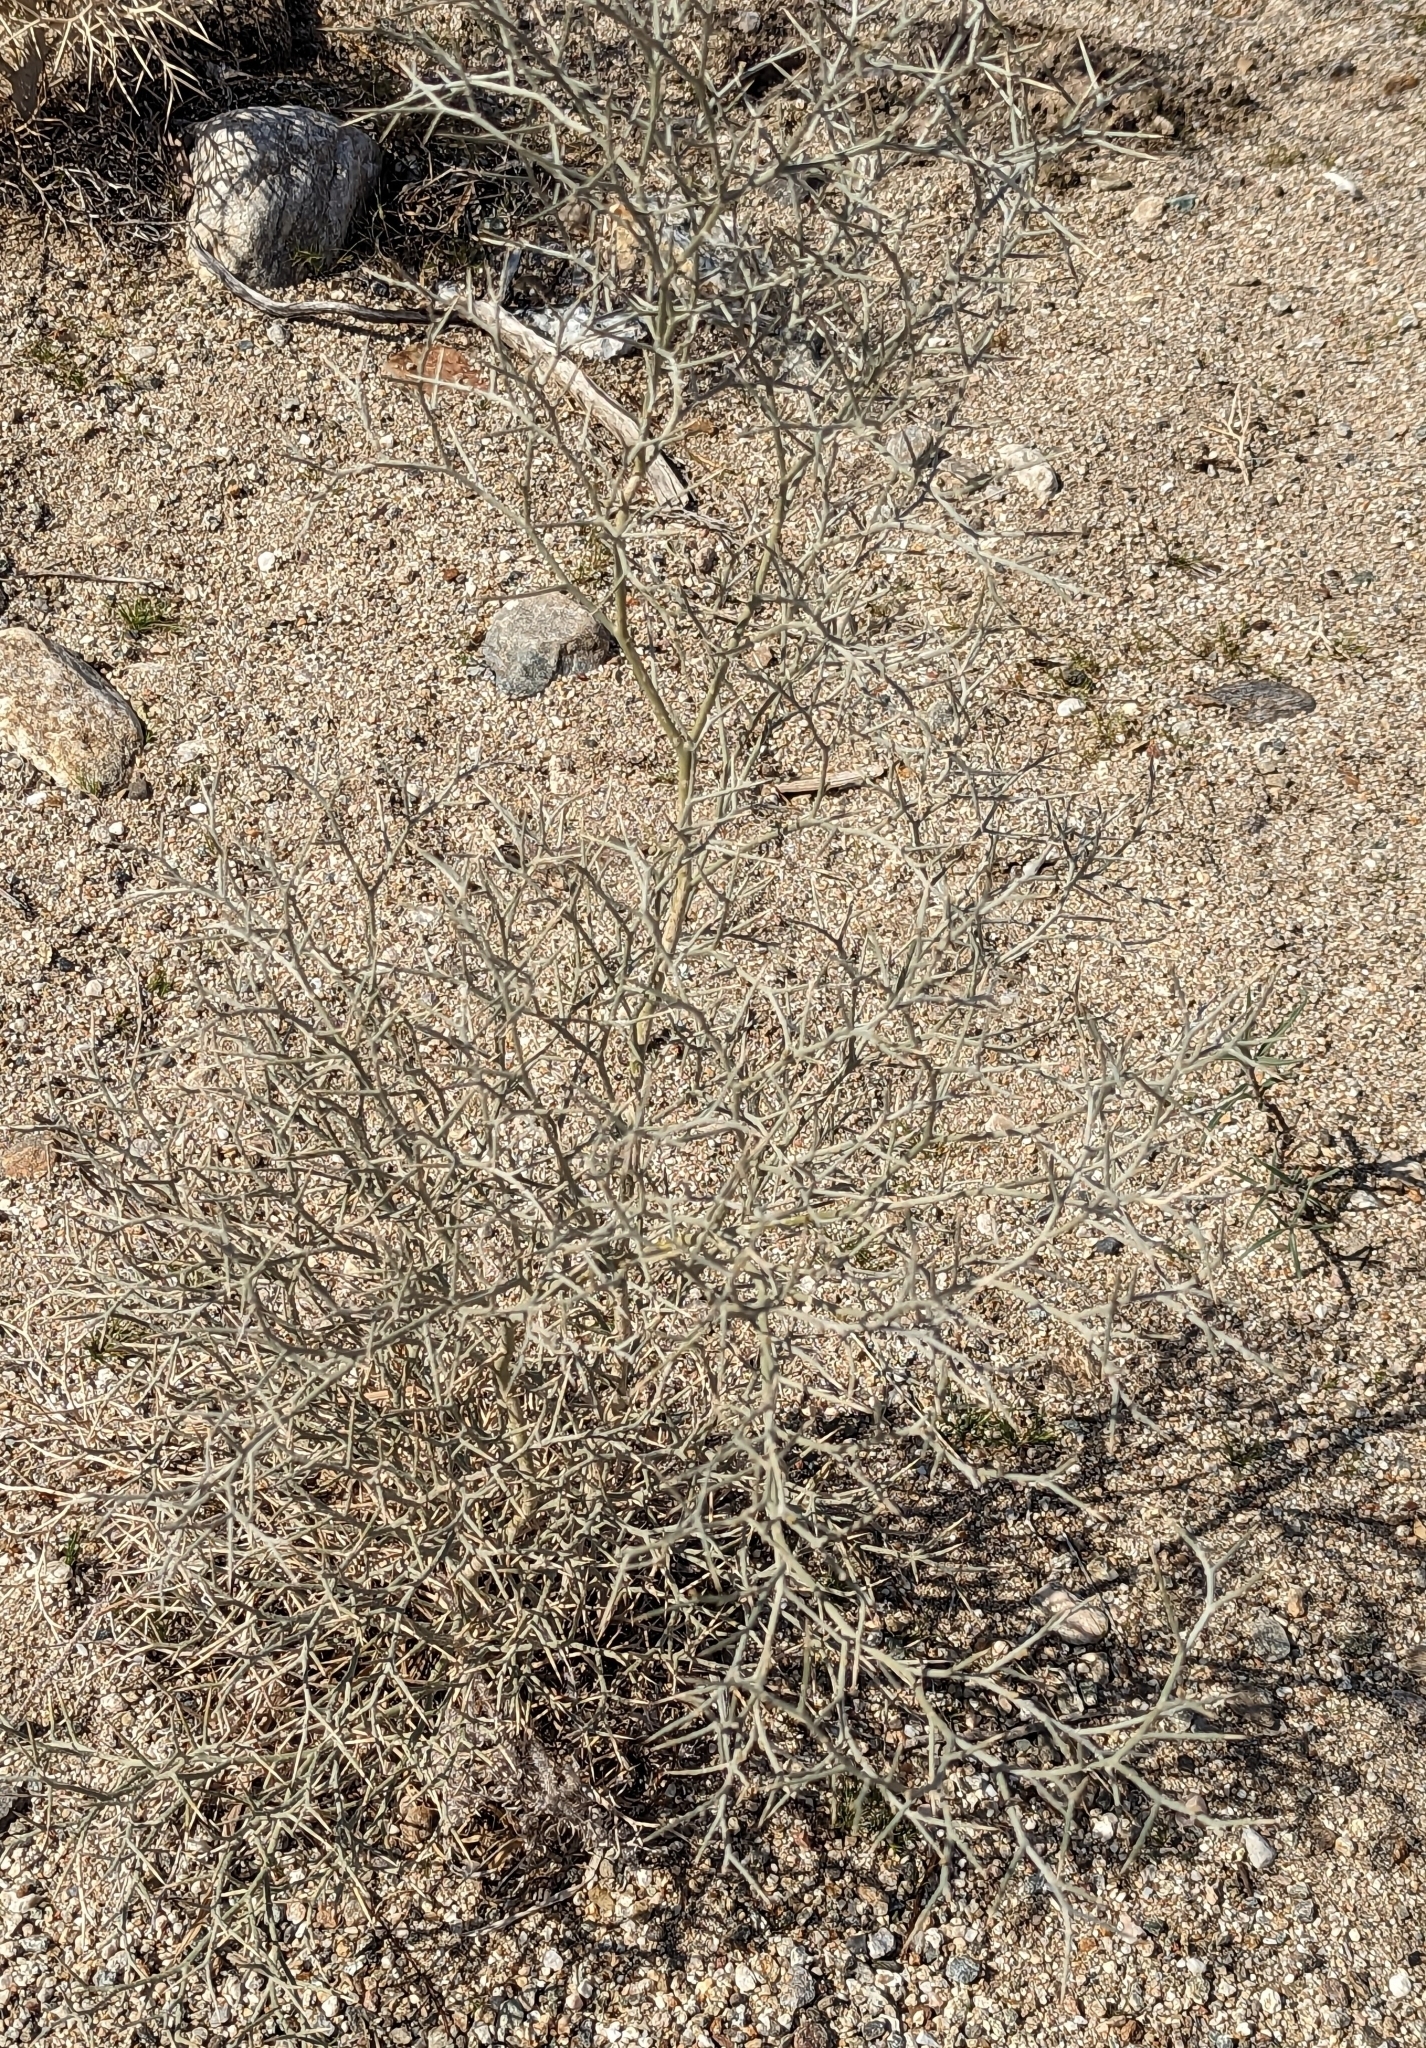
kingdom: Plantae
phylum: Tracheophyta
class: Magnoliopsida
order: Fabales
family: Fabaceae
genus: Psorothamnus
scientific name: Psorothamnus spinosus
